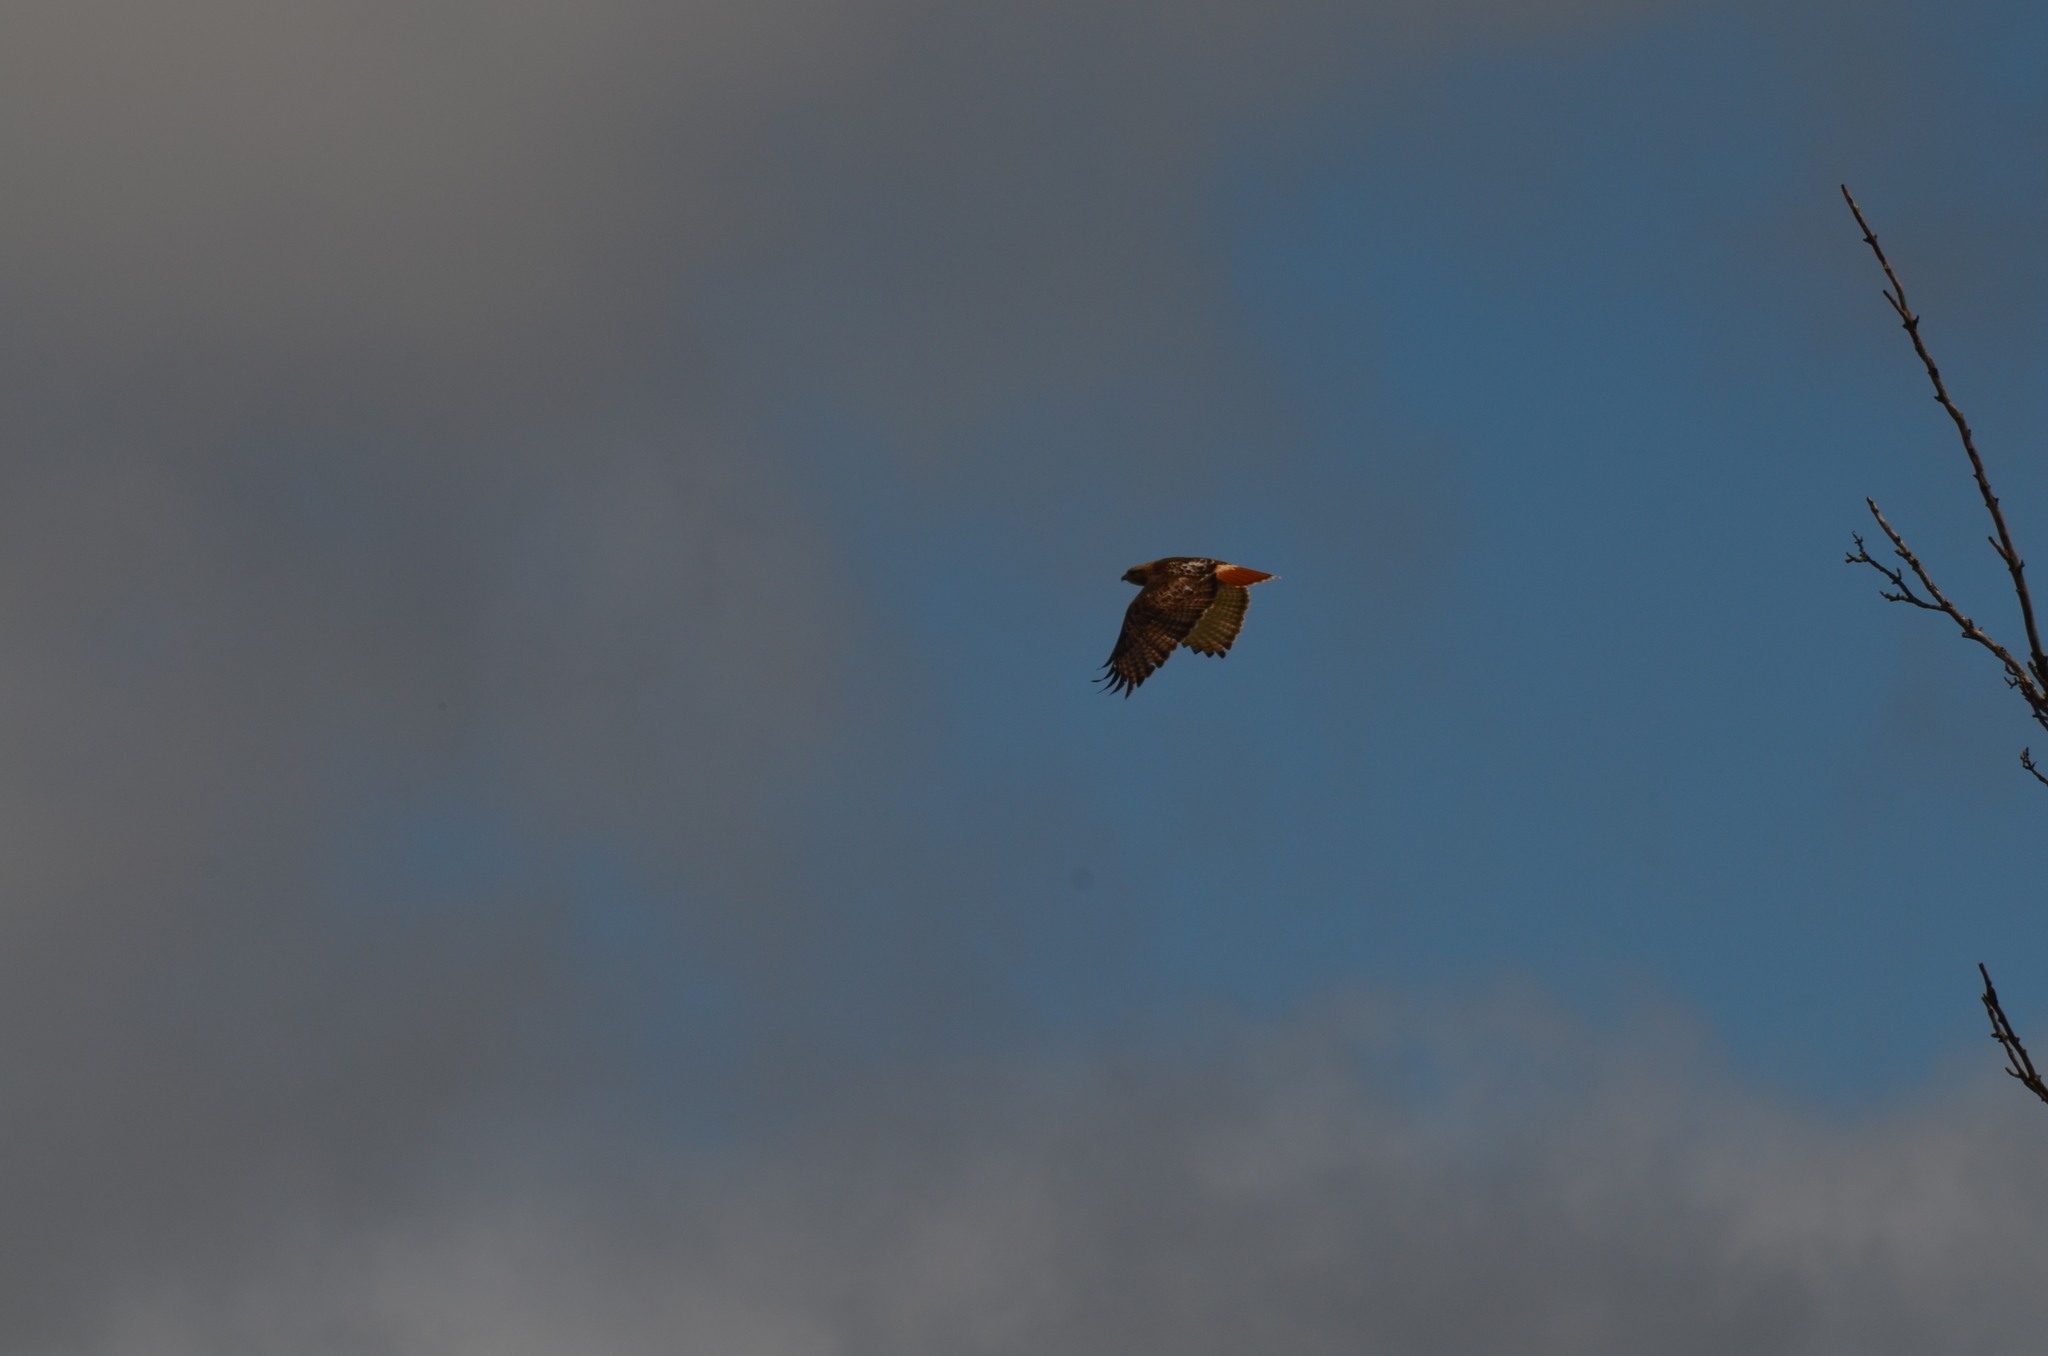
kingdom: Animalia
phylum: Chordata
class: Aves
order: Accipitriformes
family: Accipitridae
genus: Buteo
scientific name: Buteo jamaicensis
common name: Red-tailed hawk
